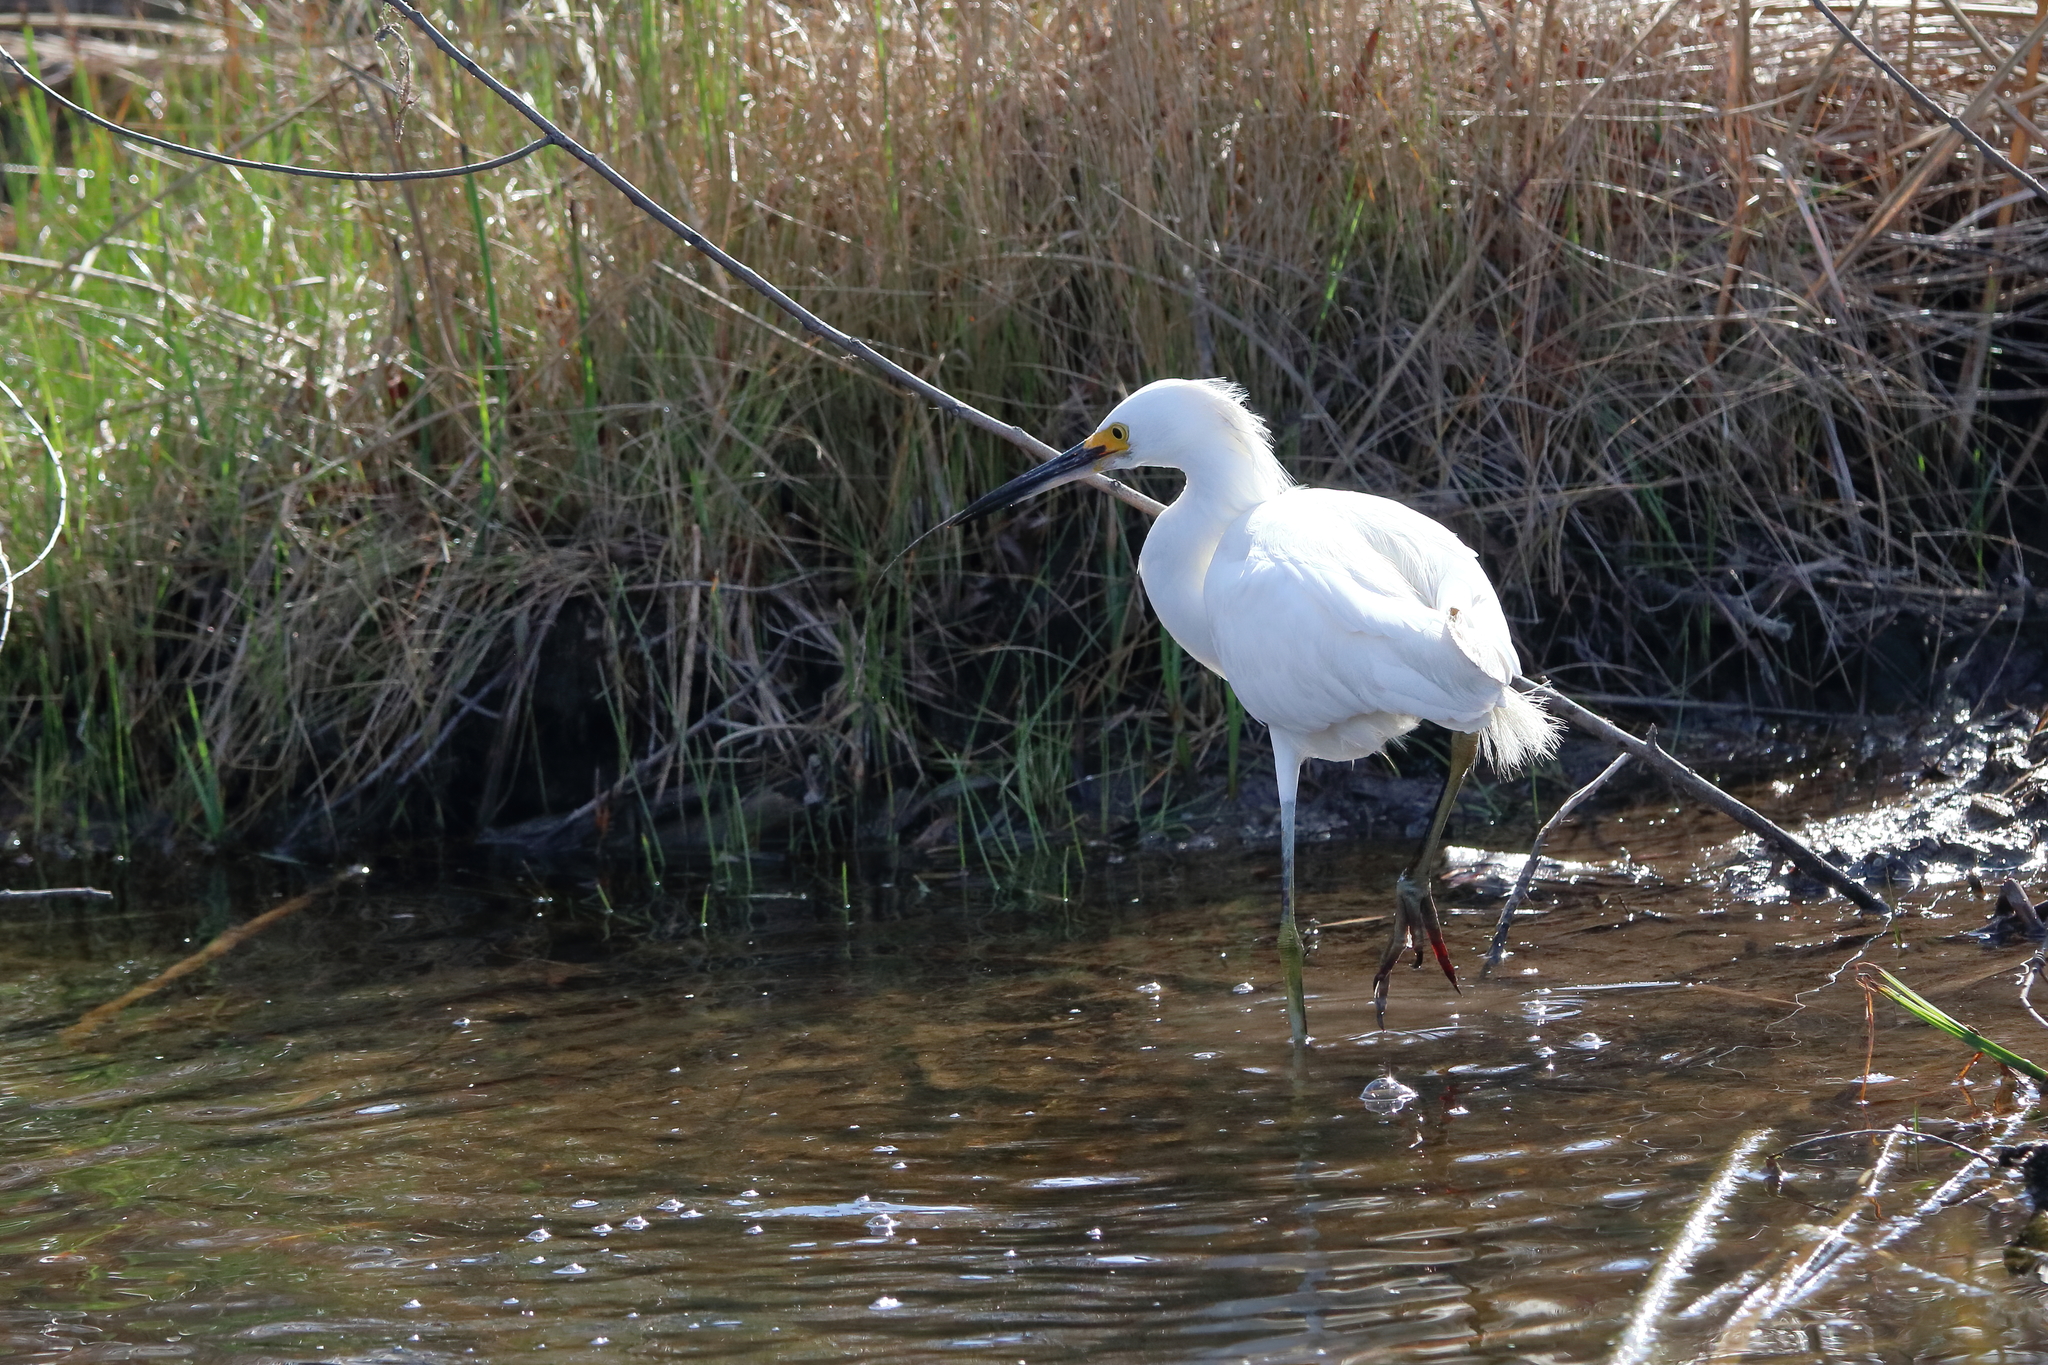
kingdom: Animalia
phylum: Chordata
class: Aves
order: Pelecaniformes
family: Ardeidae
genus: Egretta
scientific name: Egretta thula
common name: Snowy egret
